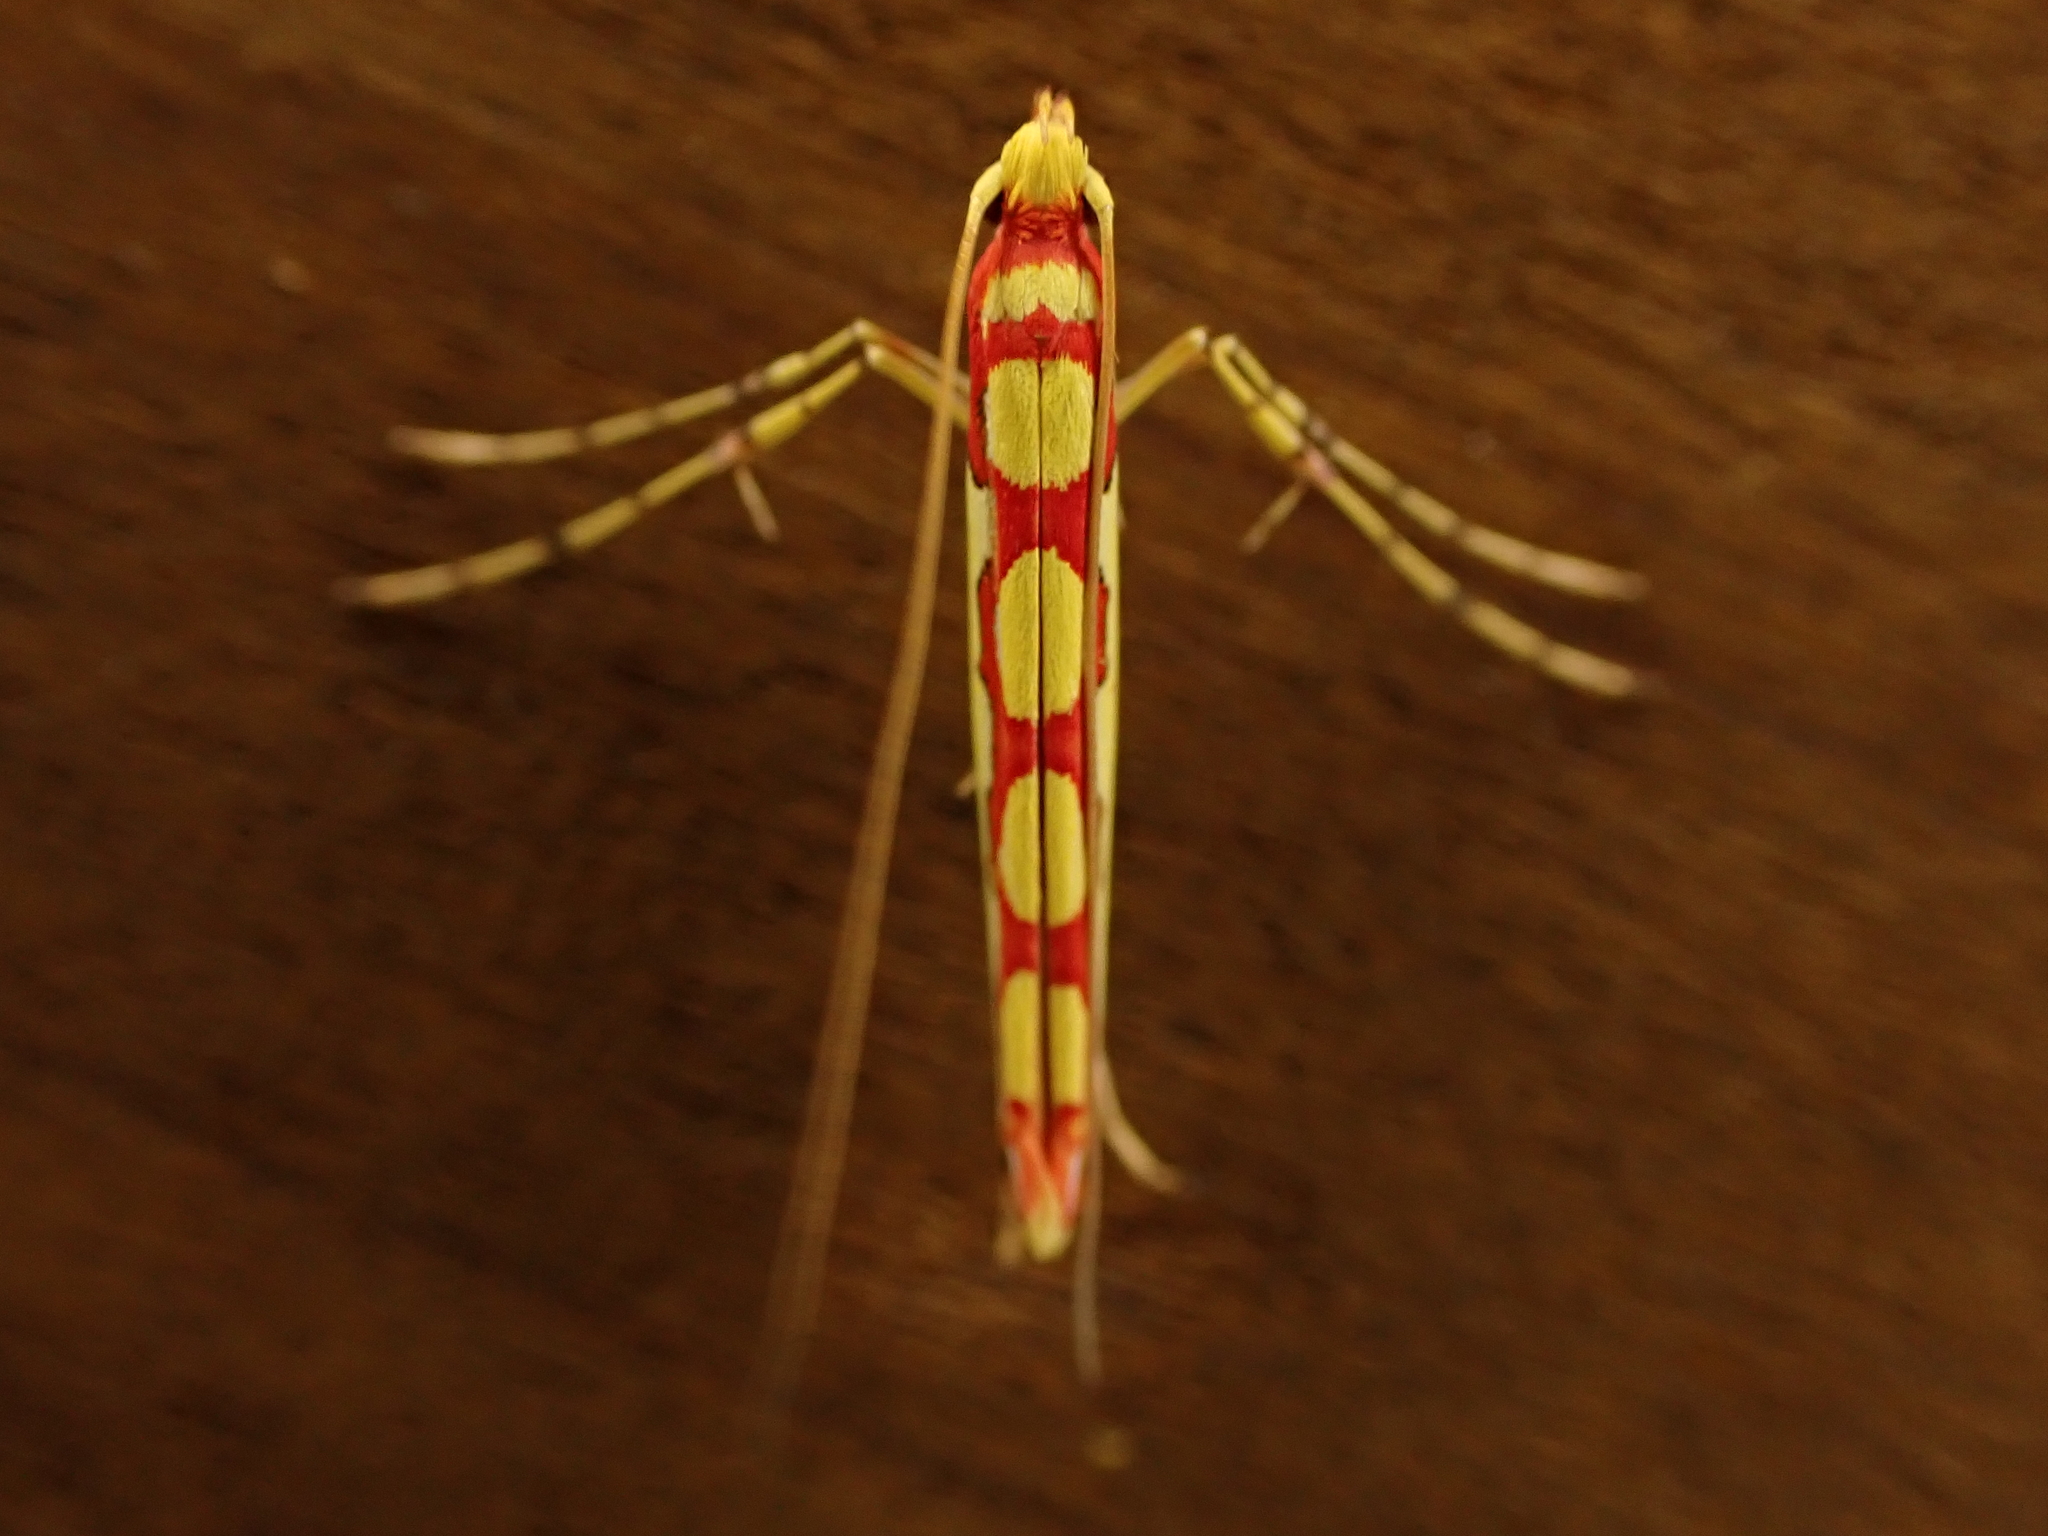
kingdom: Animalia
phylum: Arthropoda
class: Insecta
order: Lepidoptera
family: Gracillariidae
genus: Macarostola
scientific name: Macarostola miniella
